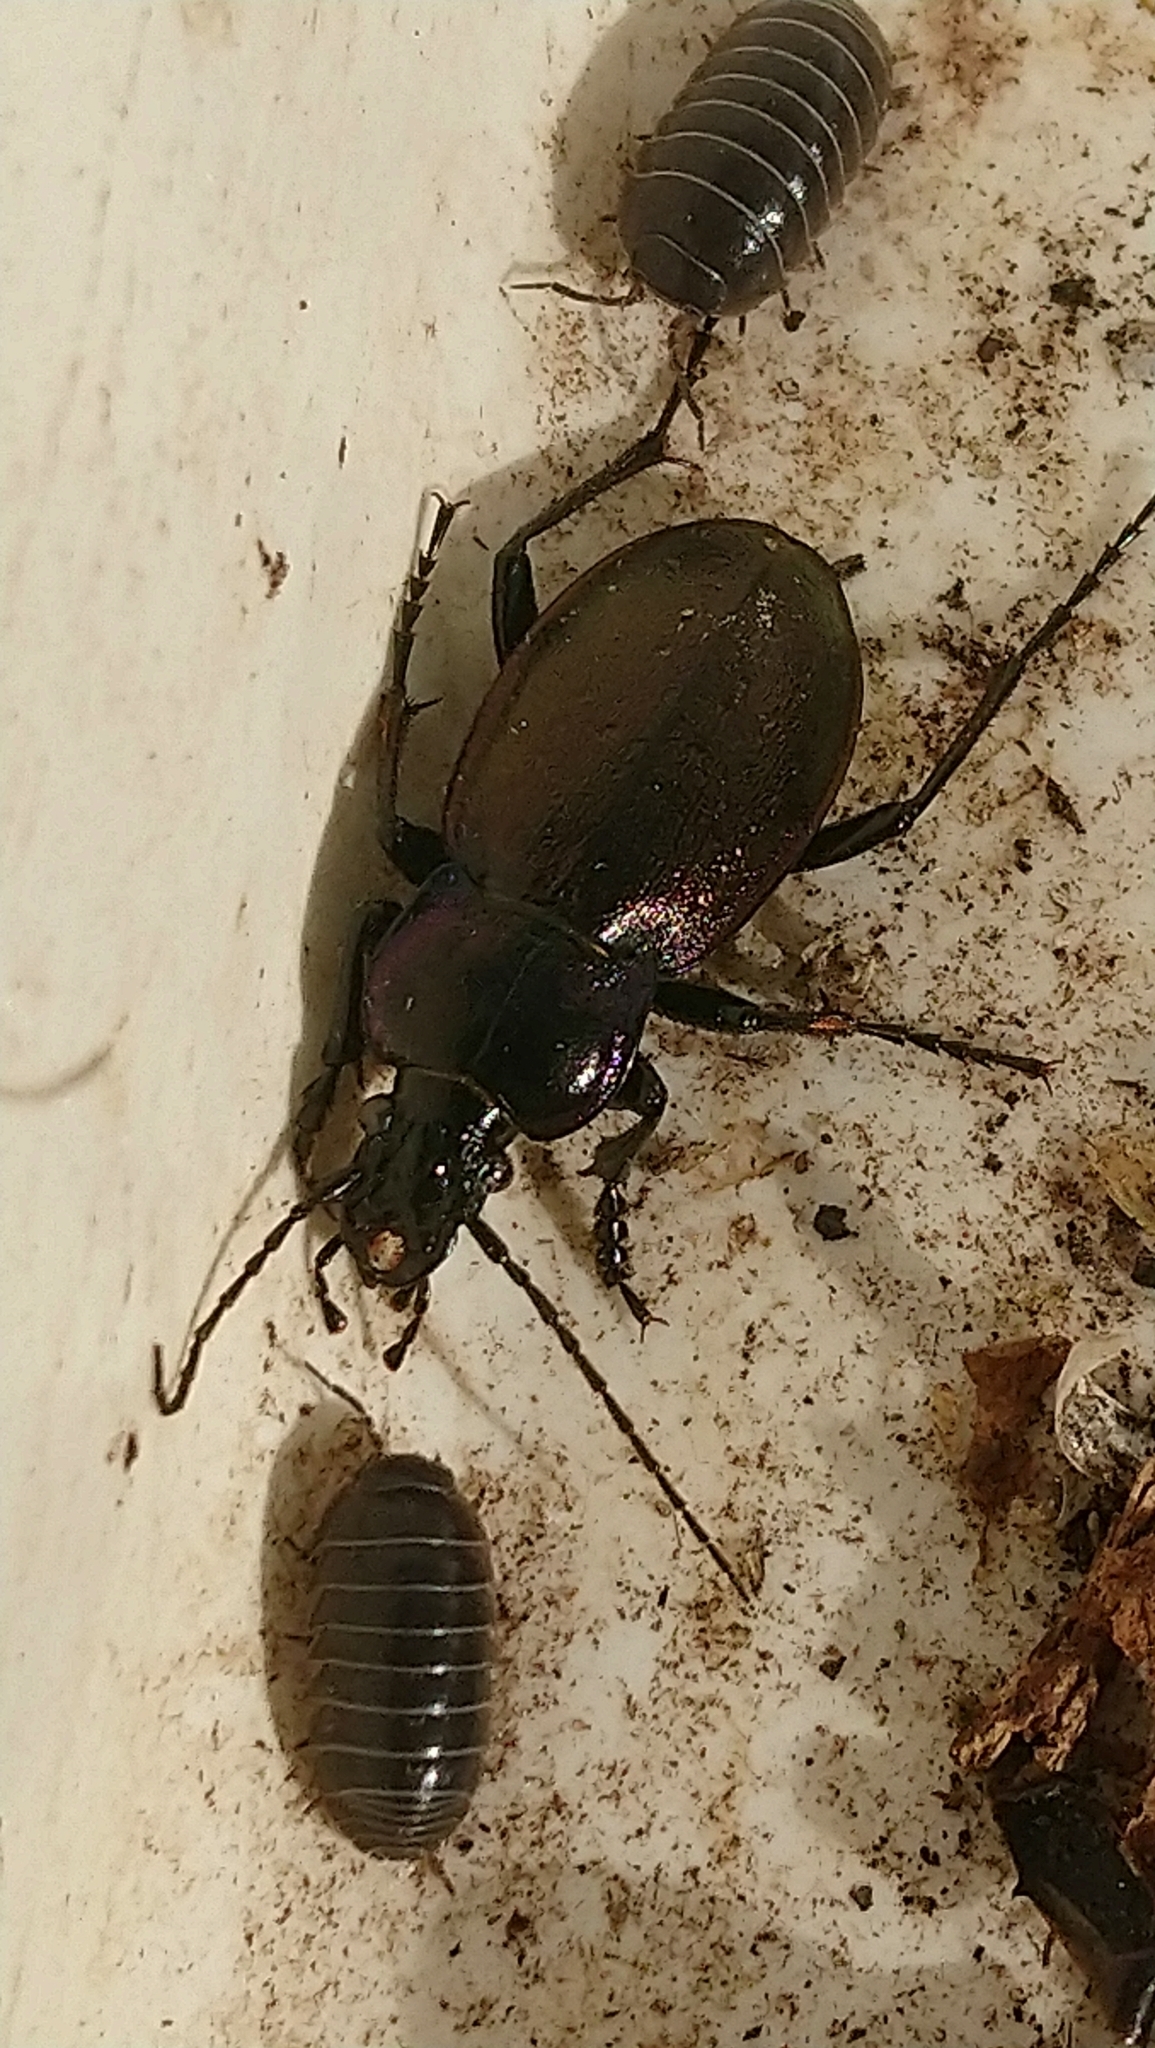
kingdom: Animalia
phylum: Arthropoda
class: Insecta
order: Coleoptera
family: Carabidae
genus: Carabus
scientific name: Carabus nemoralis
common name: European ground beetle
